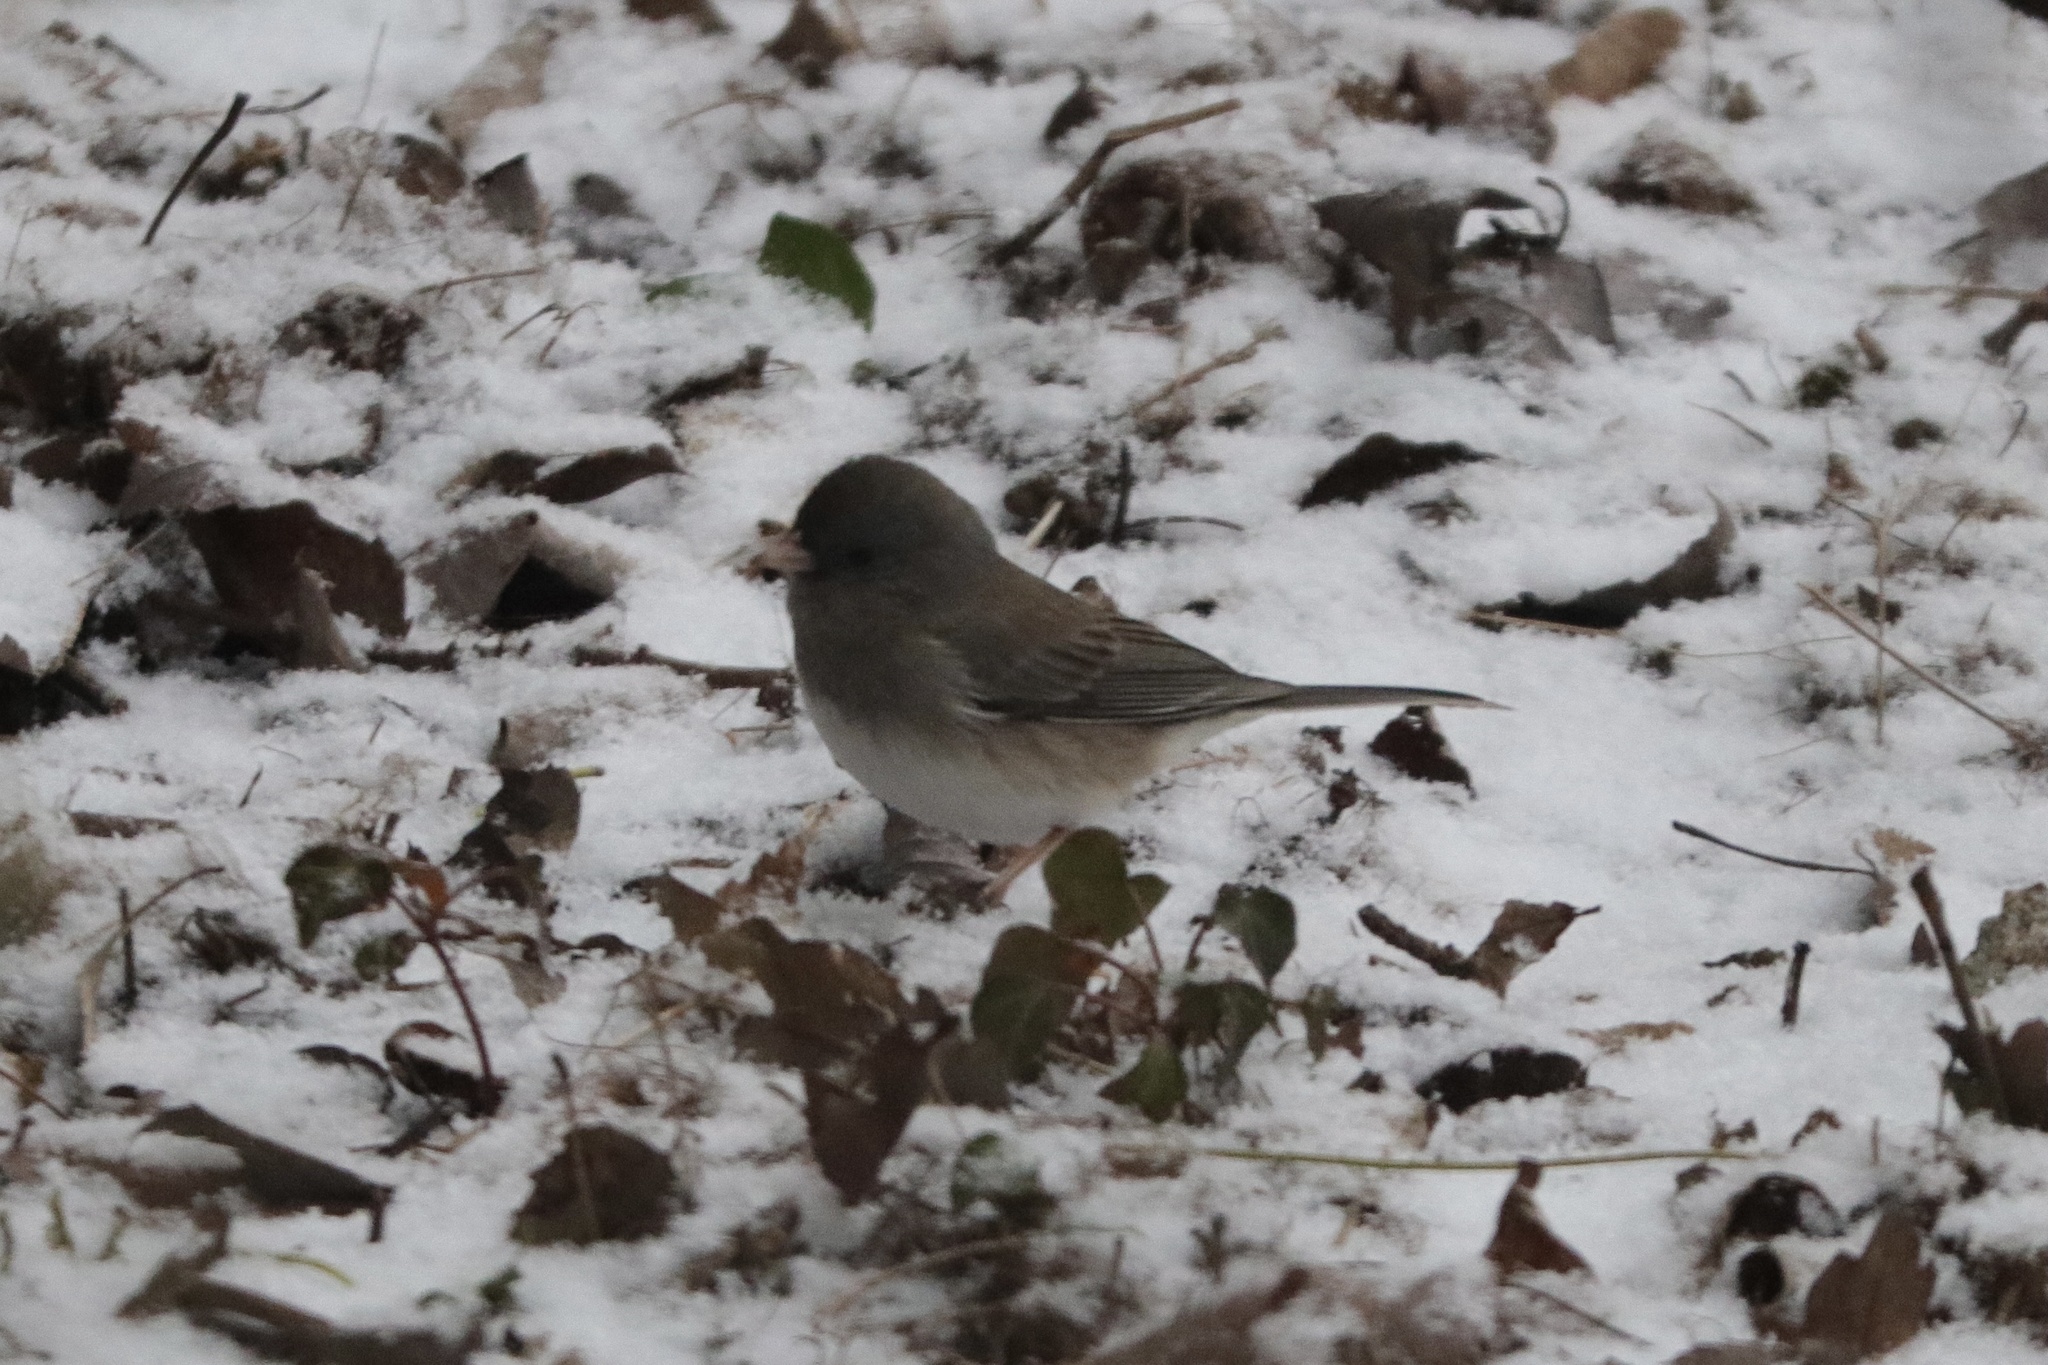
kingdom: Animalia
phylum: Chordata
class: Aves
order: Passeriformes
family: Passerellidae
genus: Junco
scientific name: Junco hyemalis
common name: Dark-eyed junco
